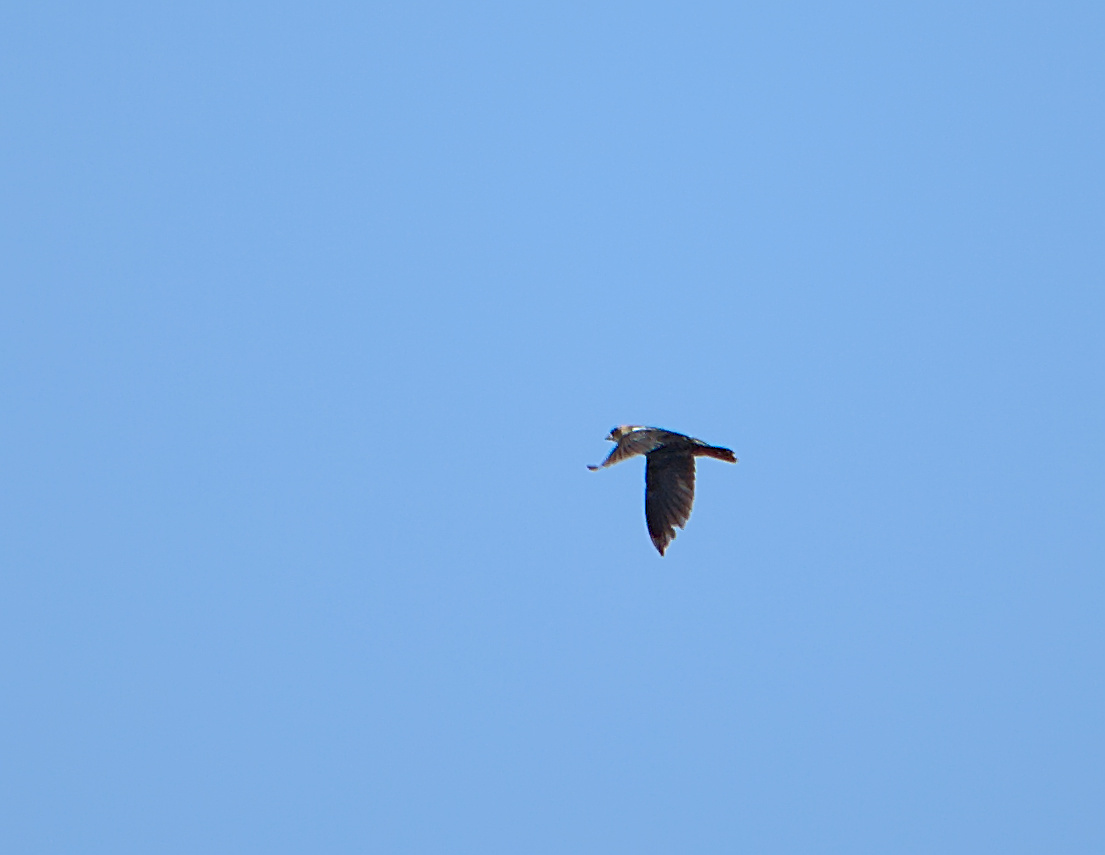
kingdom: Animalia
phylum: Chordata
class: Aves
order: Passeriformes
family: Icteridae
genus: Dolichonyx
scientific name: Dolichonyx oryzivorus
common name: Bobolink
